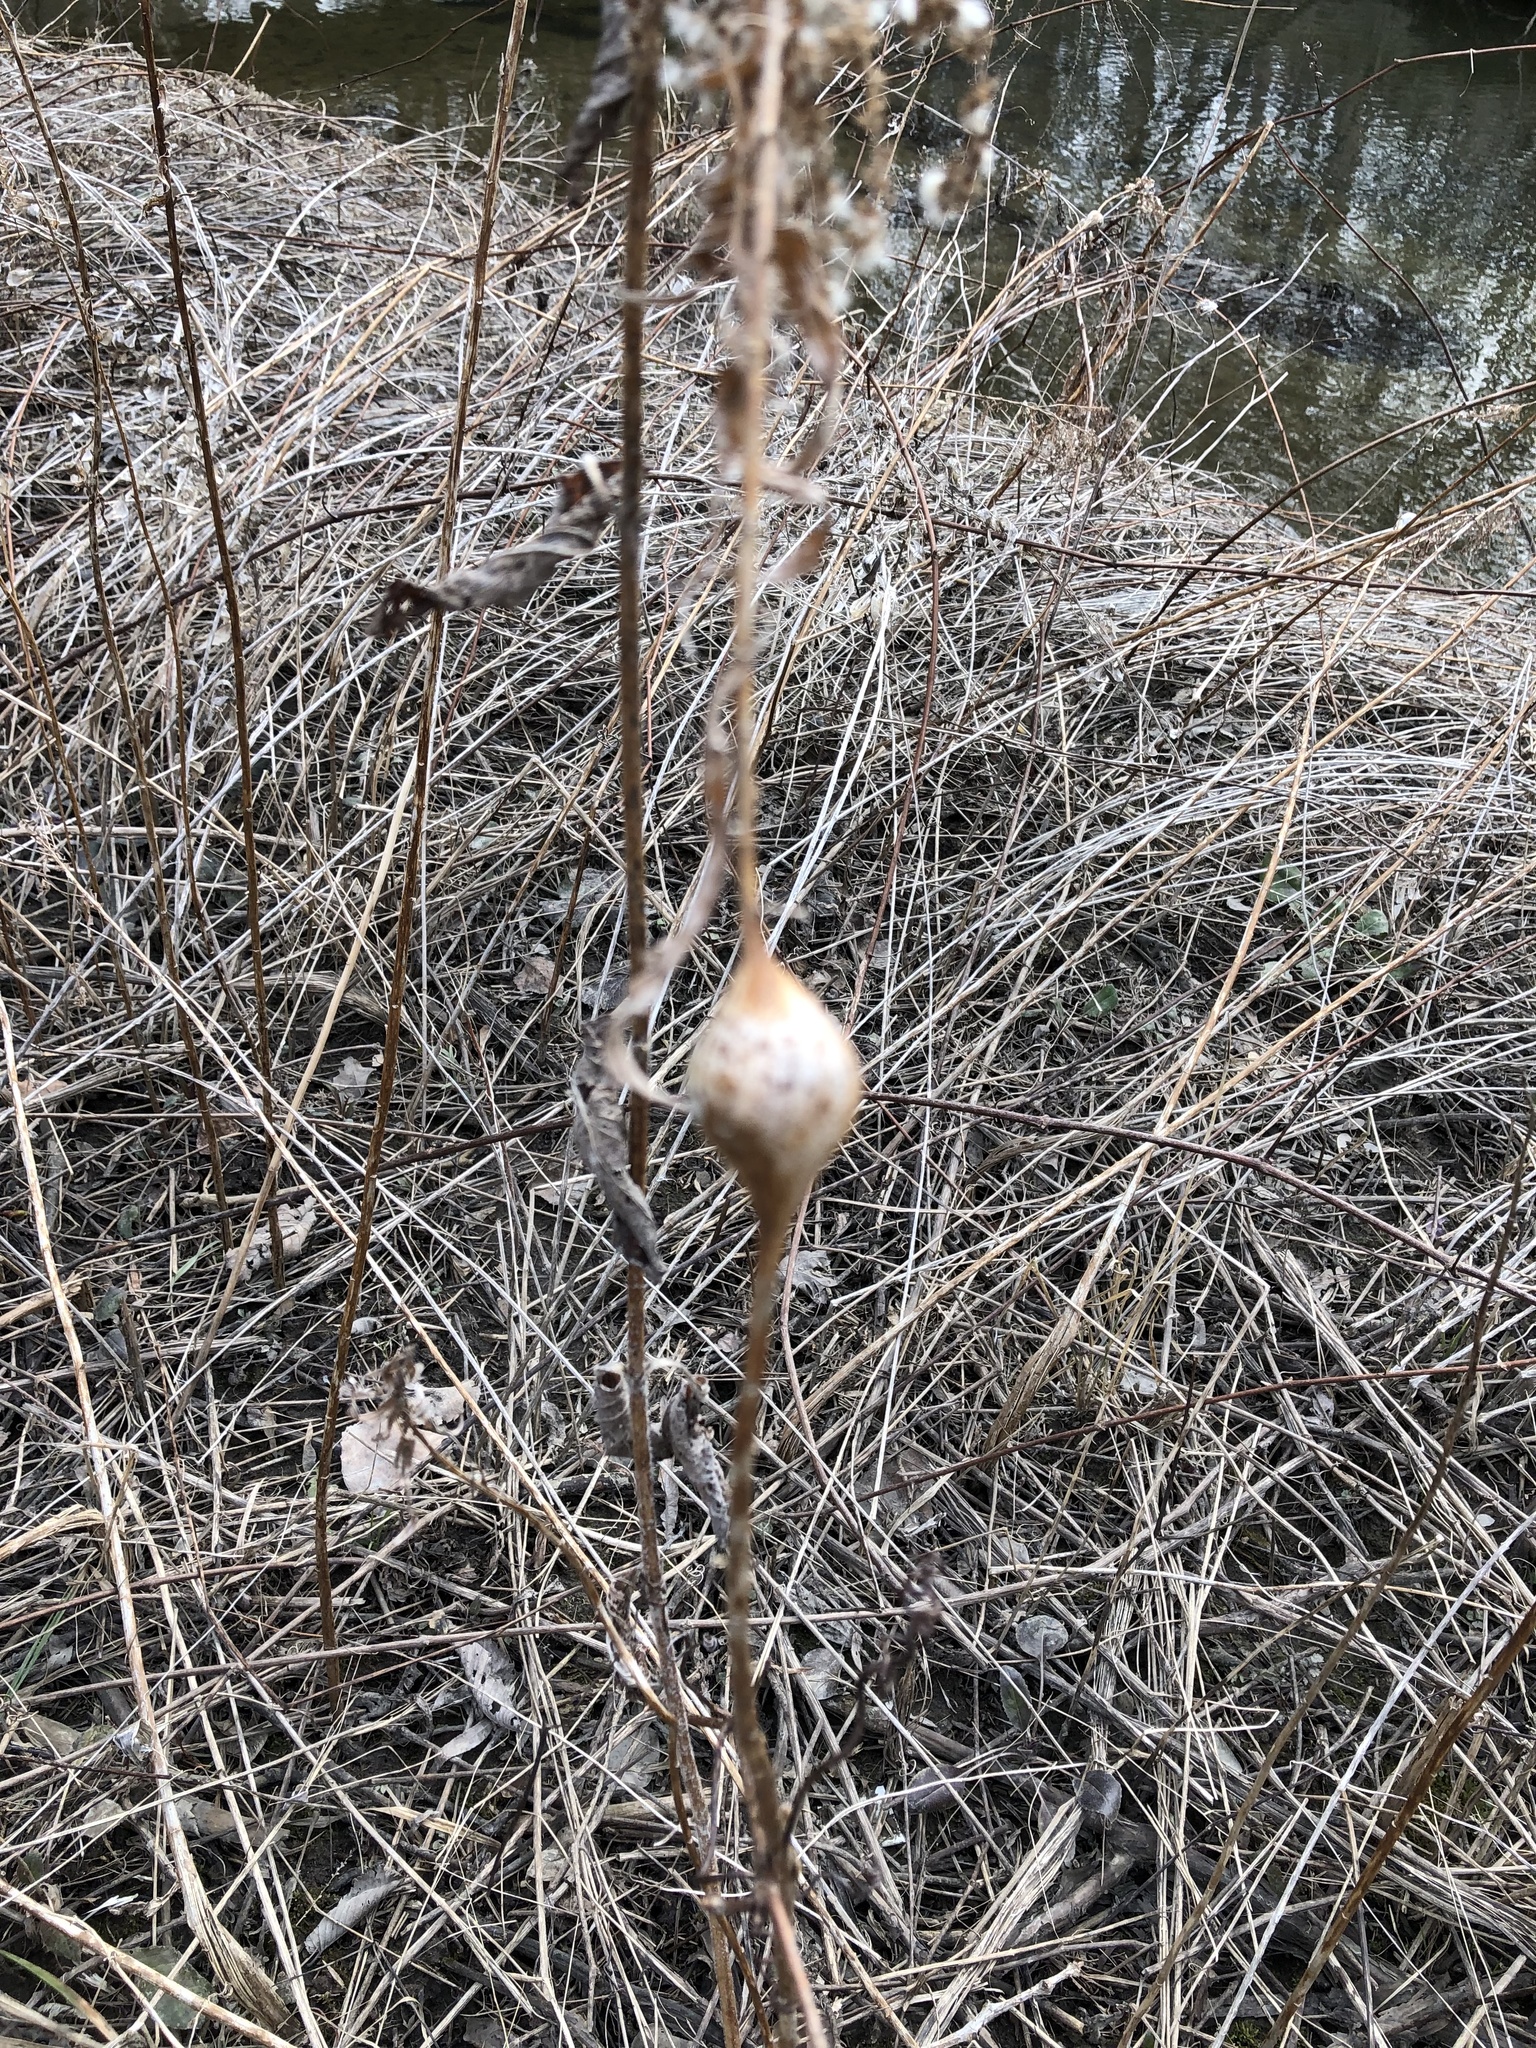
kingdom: Animalia
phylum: Arthropoda
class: Insecta
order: Diptera
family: Tephritidae
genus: Eurosta
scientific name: Eurosta solidaginis
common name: Goldenrod gall fly
